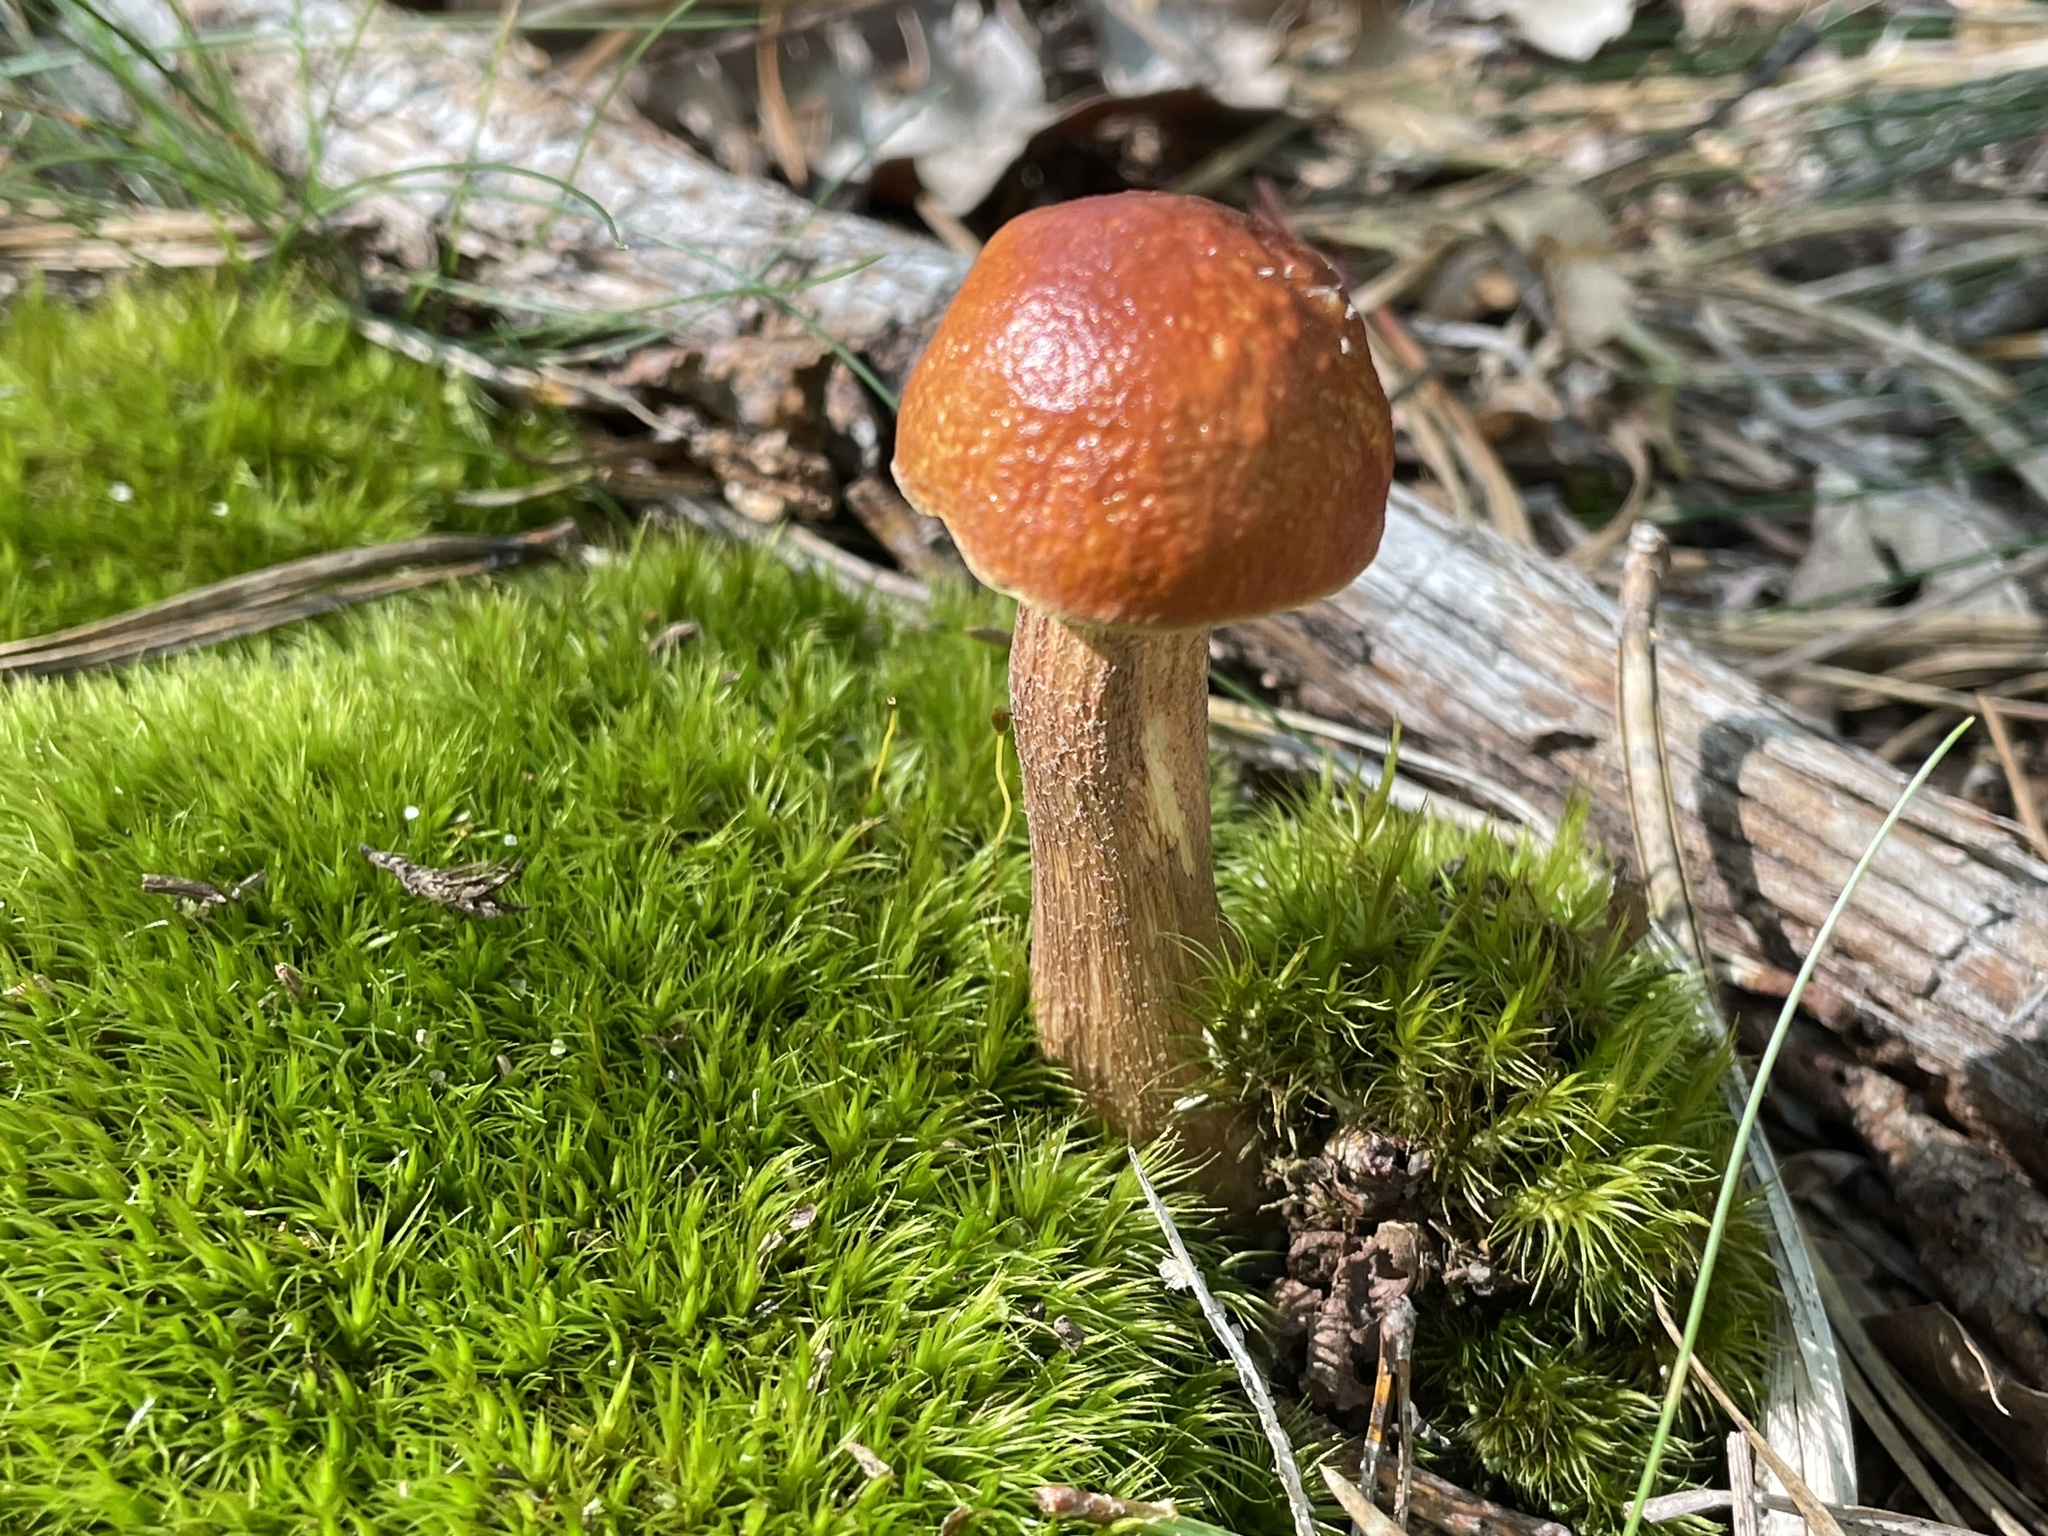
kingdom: Fungi
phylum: Basidiomycota
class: Agaricomycetes
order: Boletales
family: Boletaceae
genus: Leccinum
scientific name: Leccinum longicurvipes
